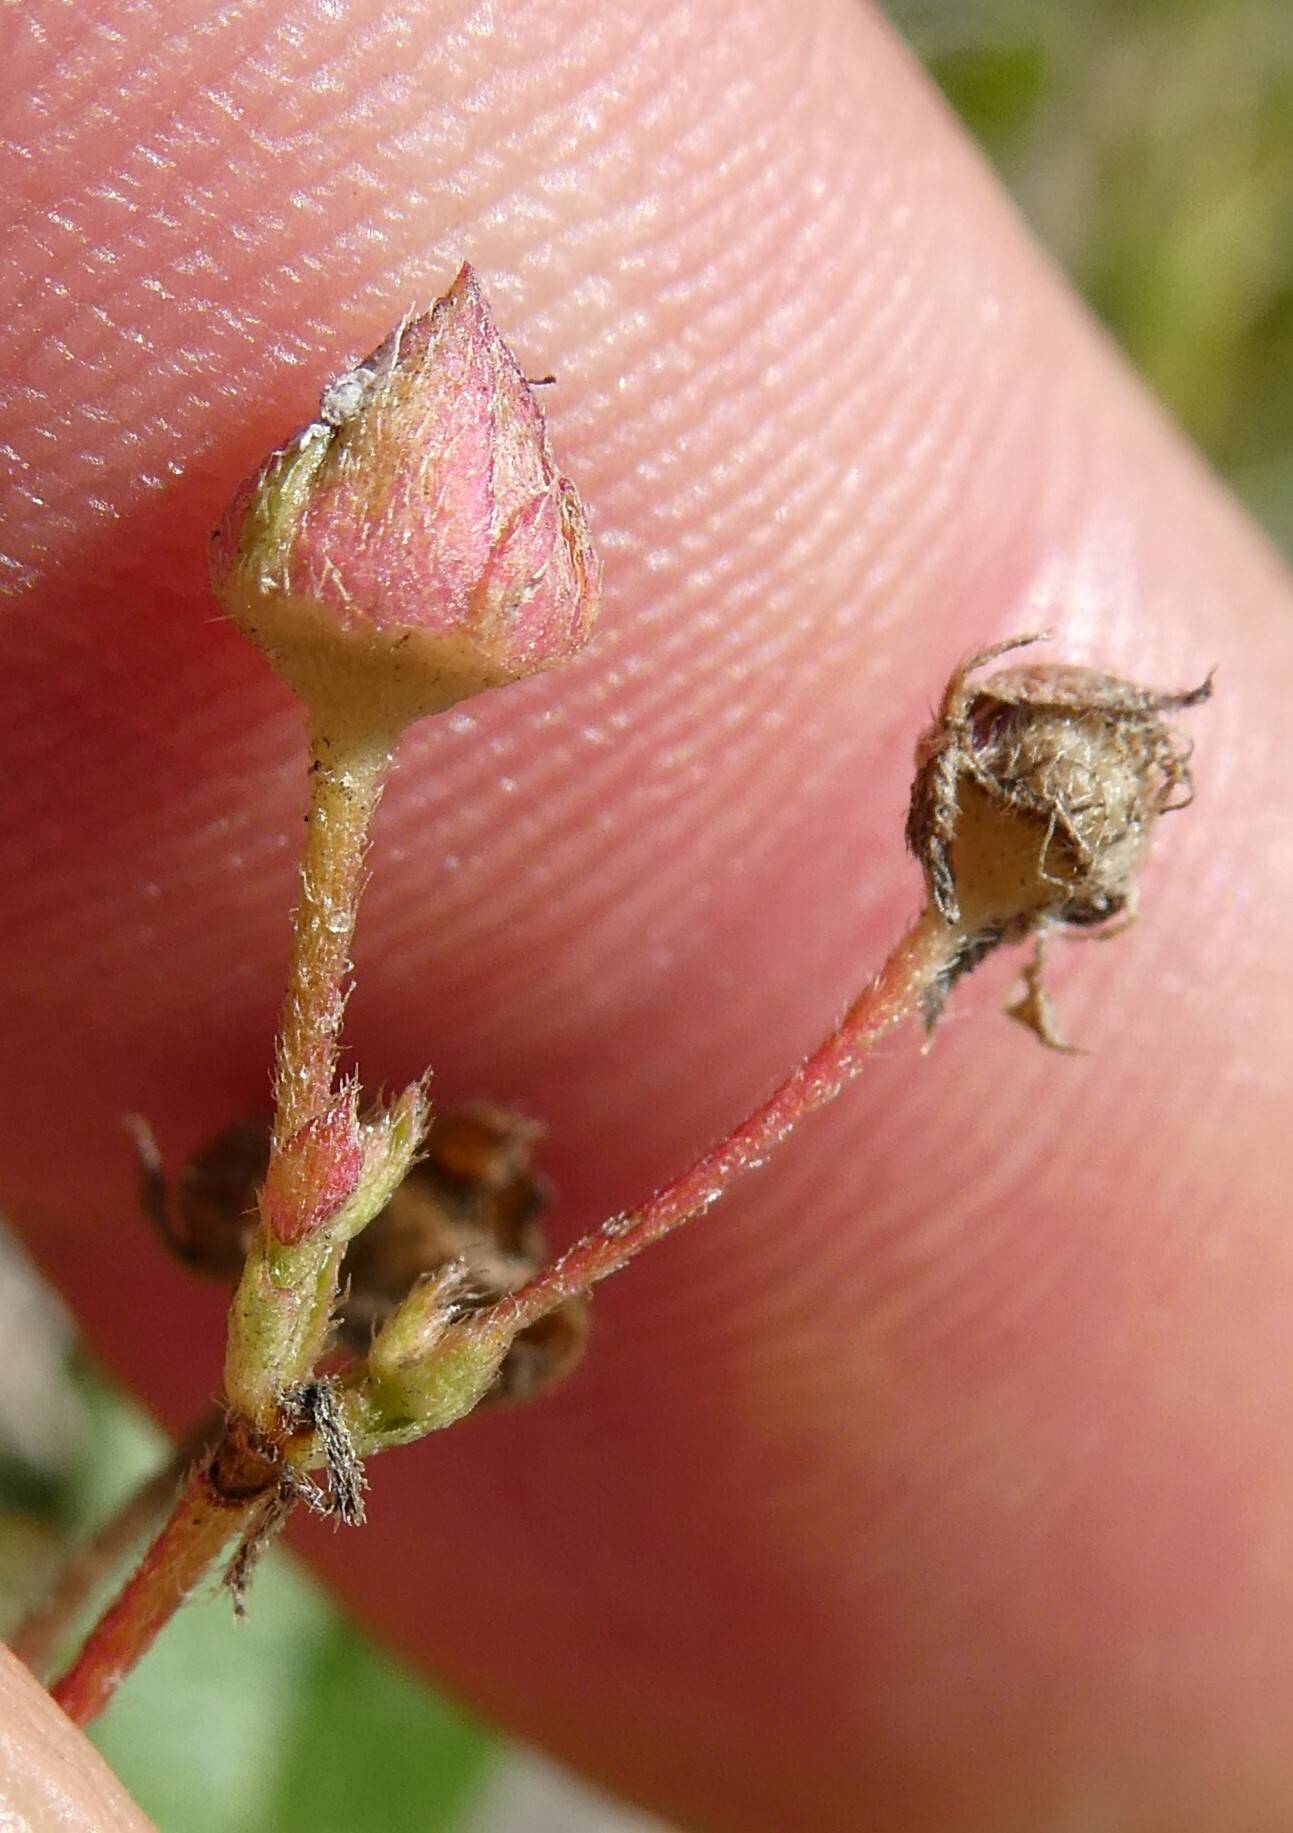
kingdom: Plantae
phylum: Tracheophyta
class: Magnoliopsida
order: Rosales
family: Rosaceae
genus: Sibbaldia
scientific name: Sibbaldia tridentata
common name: Three-toothed cinquefoil
